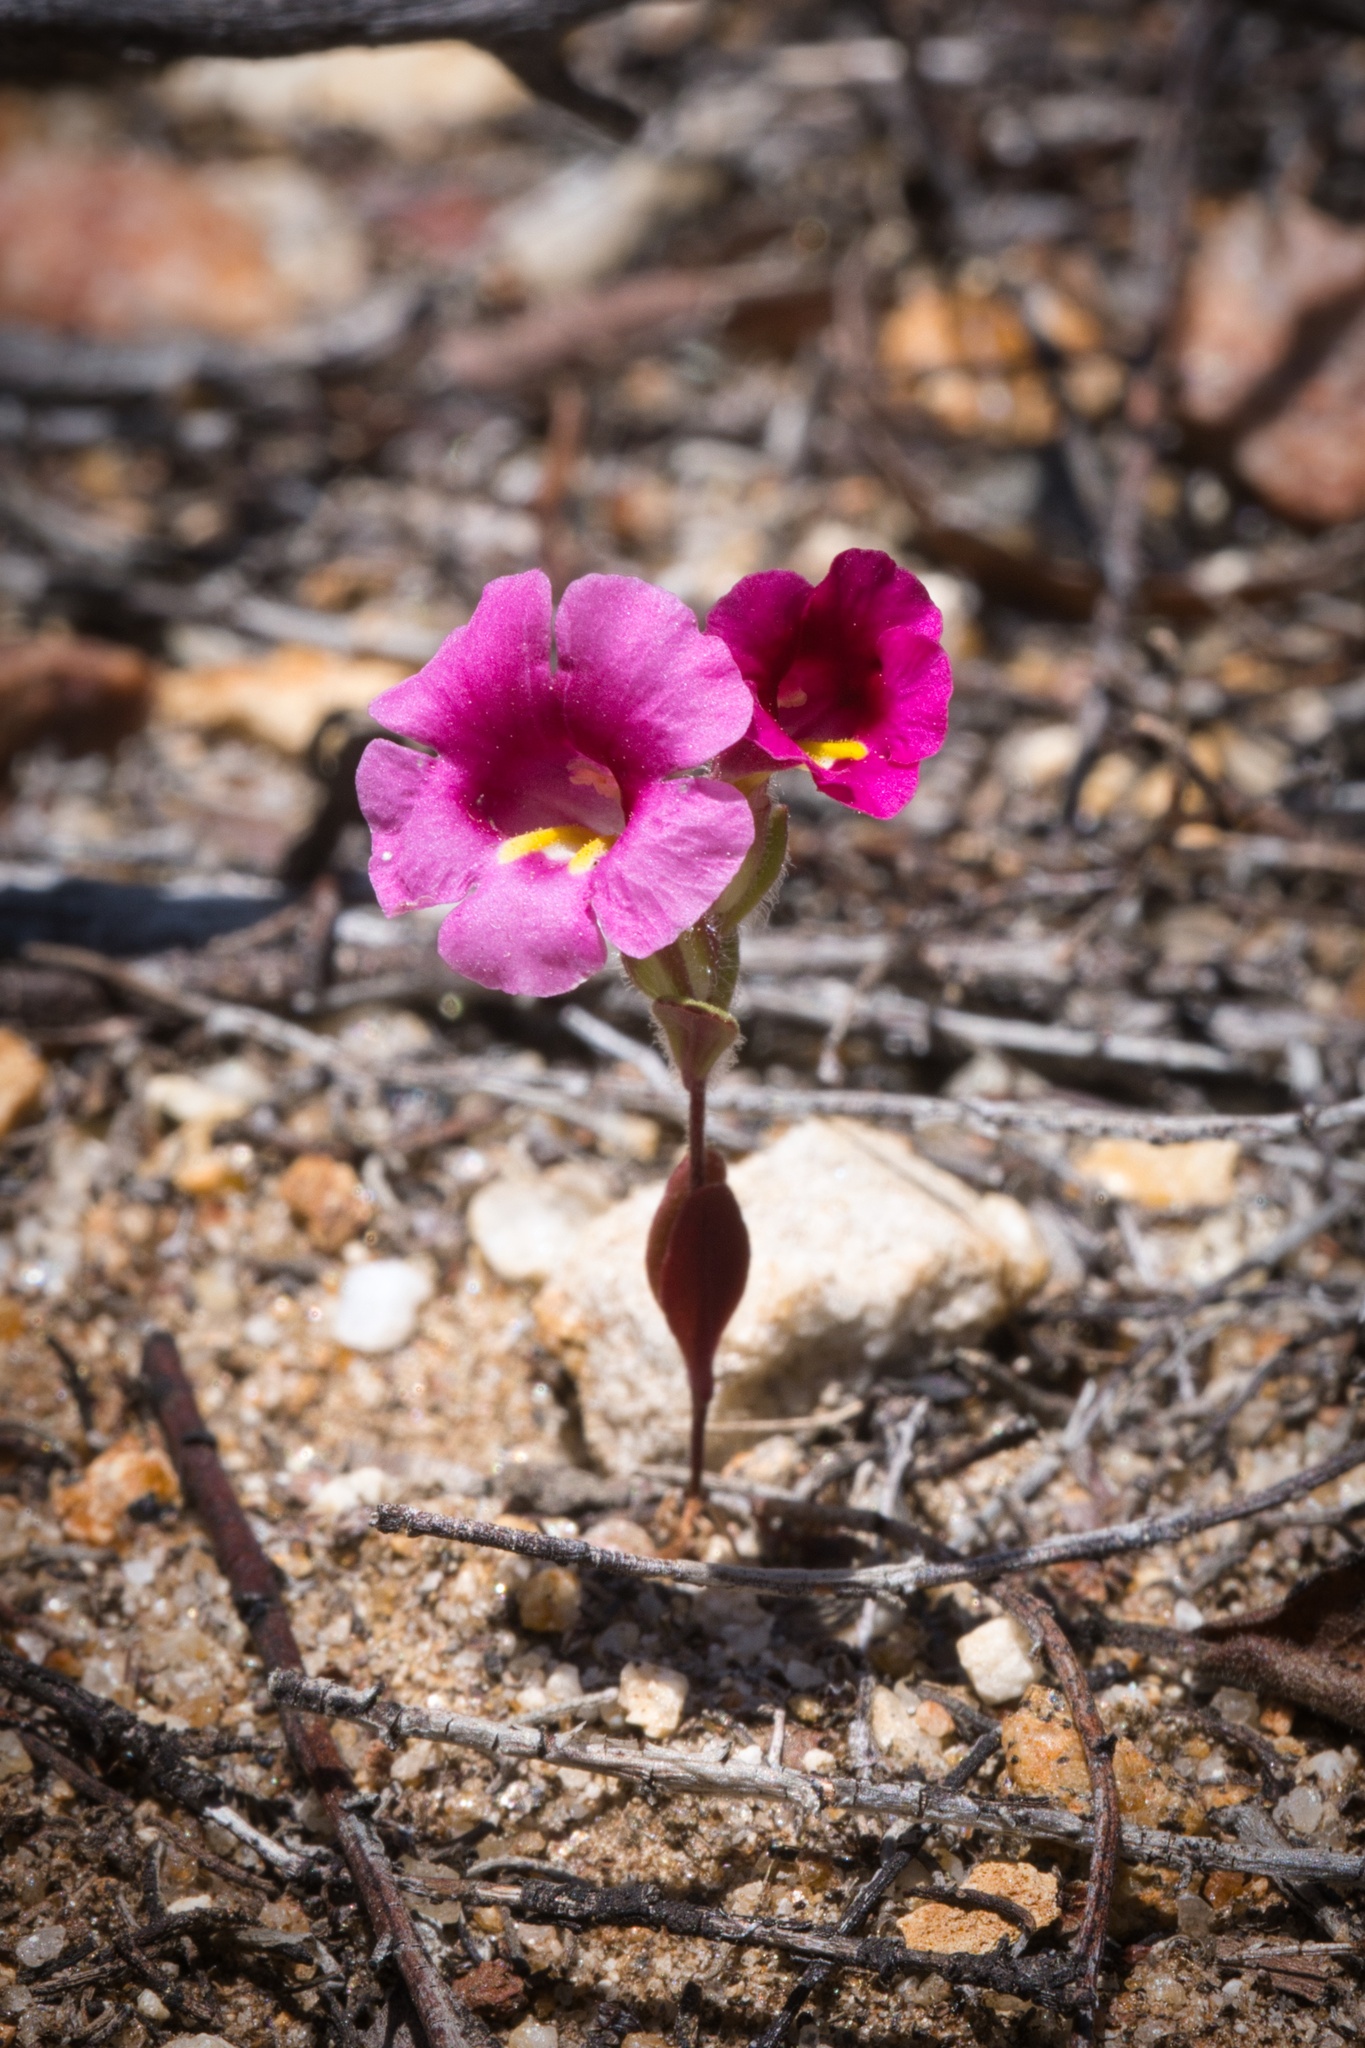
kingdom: Plantae
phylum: Tracheophyta
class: Magnoliopsida
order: Lamiales
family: Phrymaceae
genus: Diplacus
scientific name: Diplacus fremontii
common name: Fremont's monkey-flower
